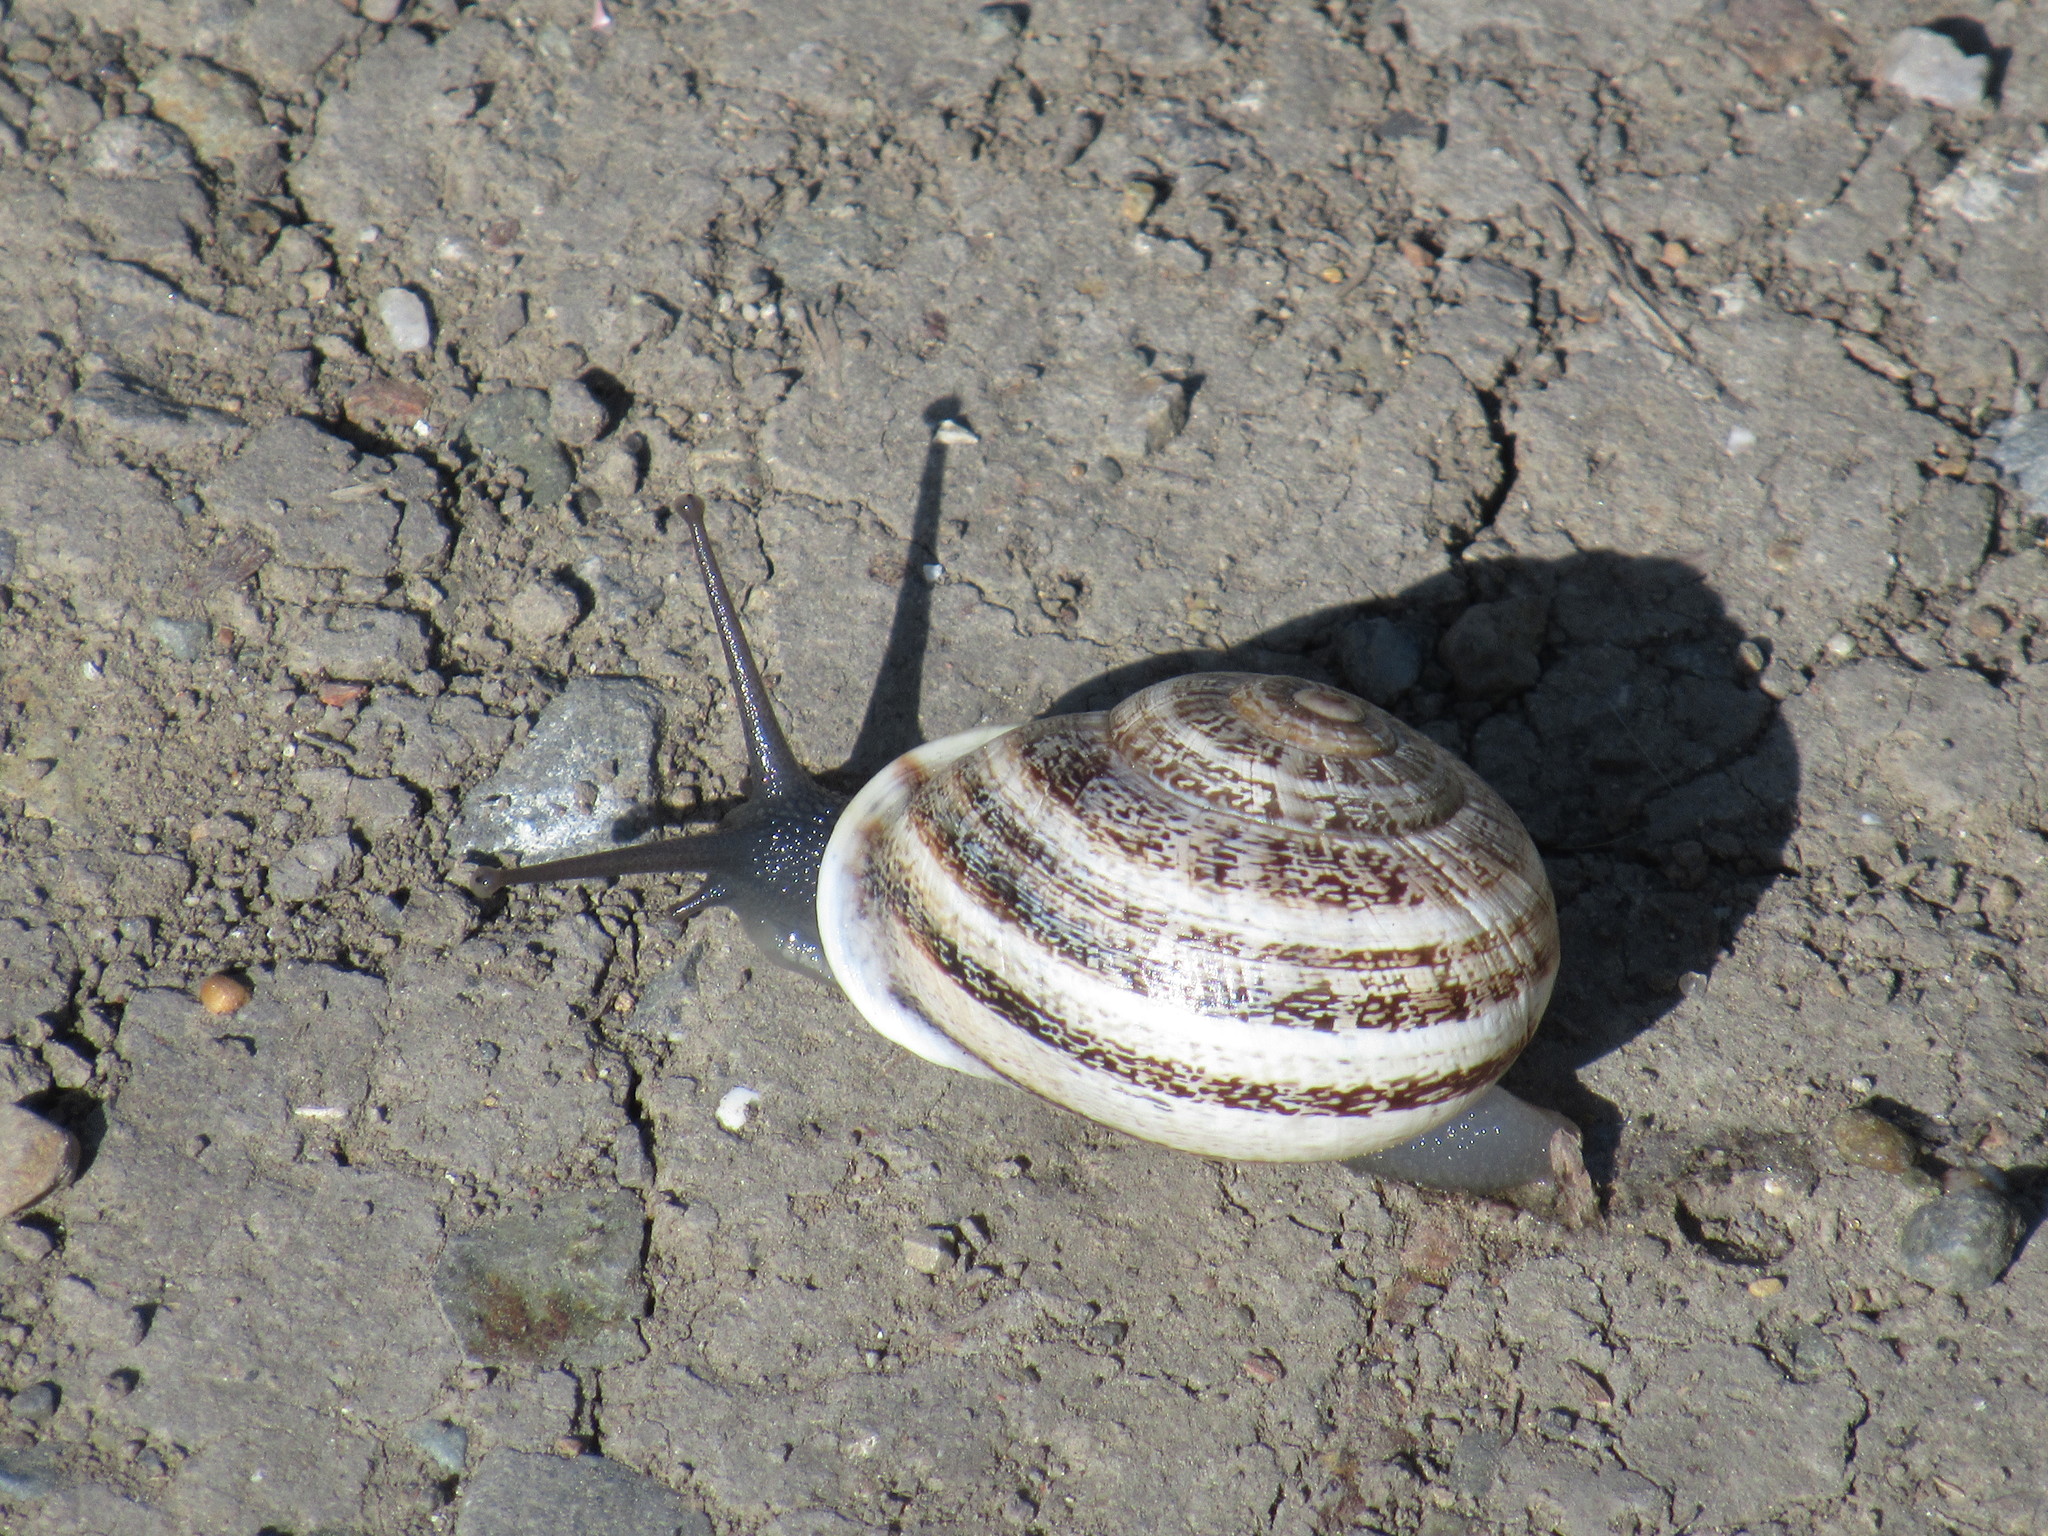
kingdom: Animalia
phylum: Mollusca
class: Gastropoda
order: Stylommatophora
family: Helicidae
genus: Otala
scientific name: Otala lactea
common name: Milk snail
